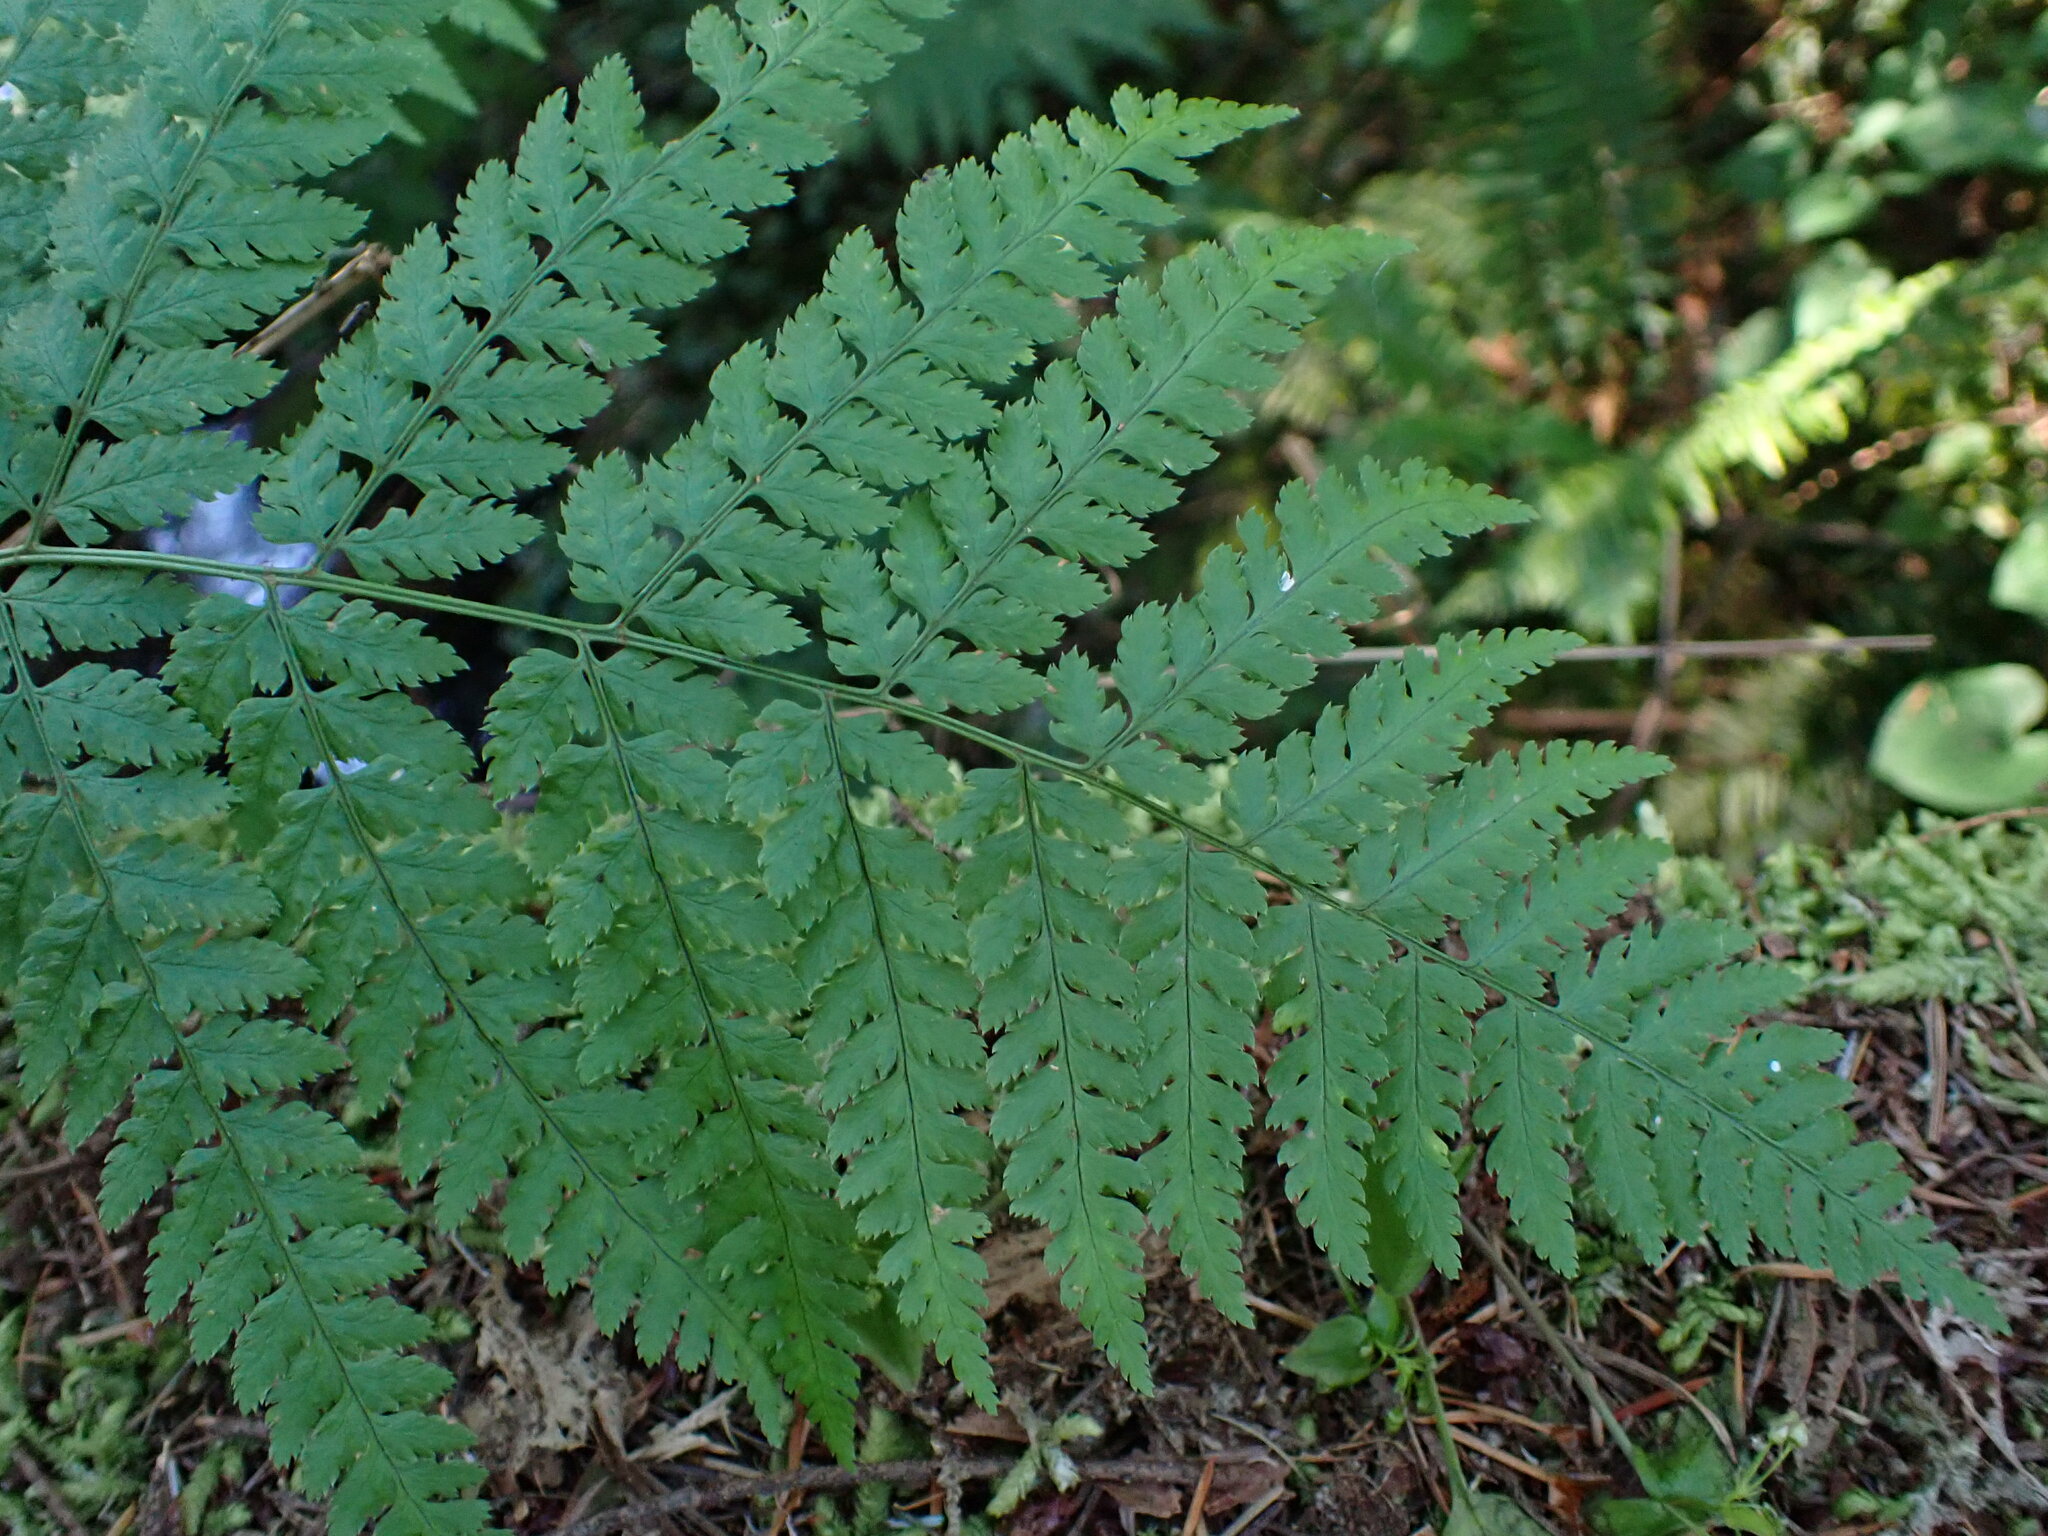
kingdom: Plantae
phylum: Tracheophyta
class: Polypodiopsida
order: Polypodiales
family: Dryopteridaceae
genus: Dryopteris
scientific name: Dryopteris expansa
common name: Northern buckler fern
